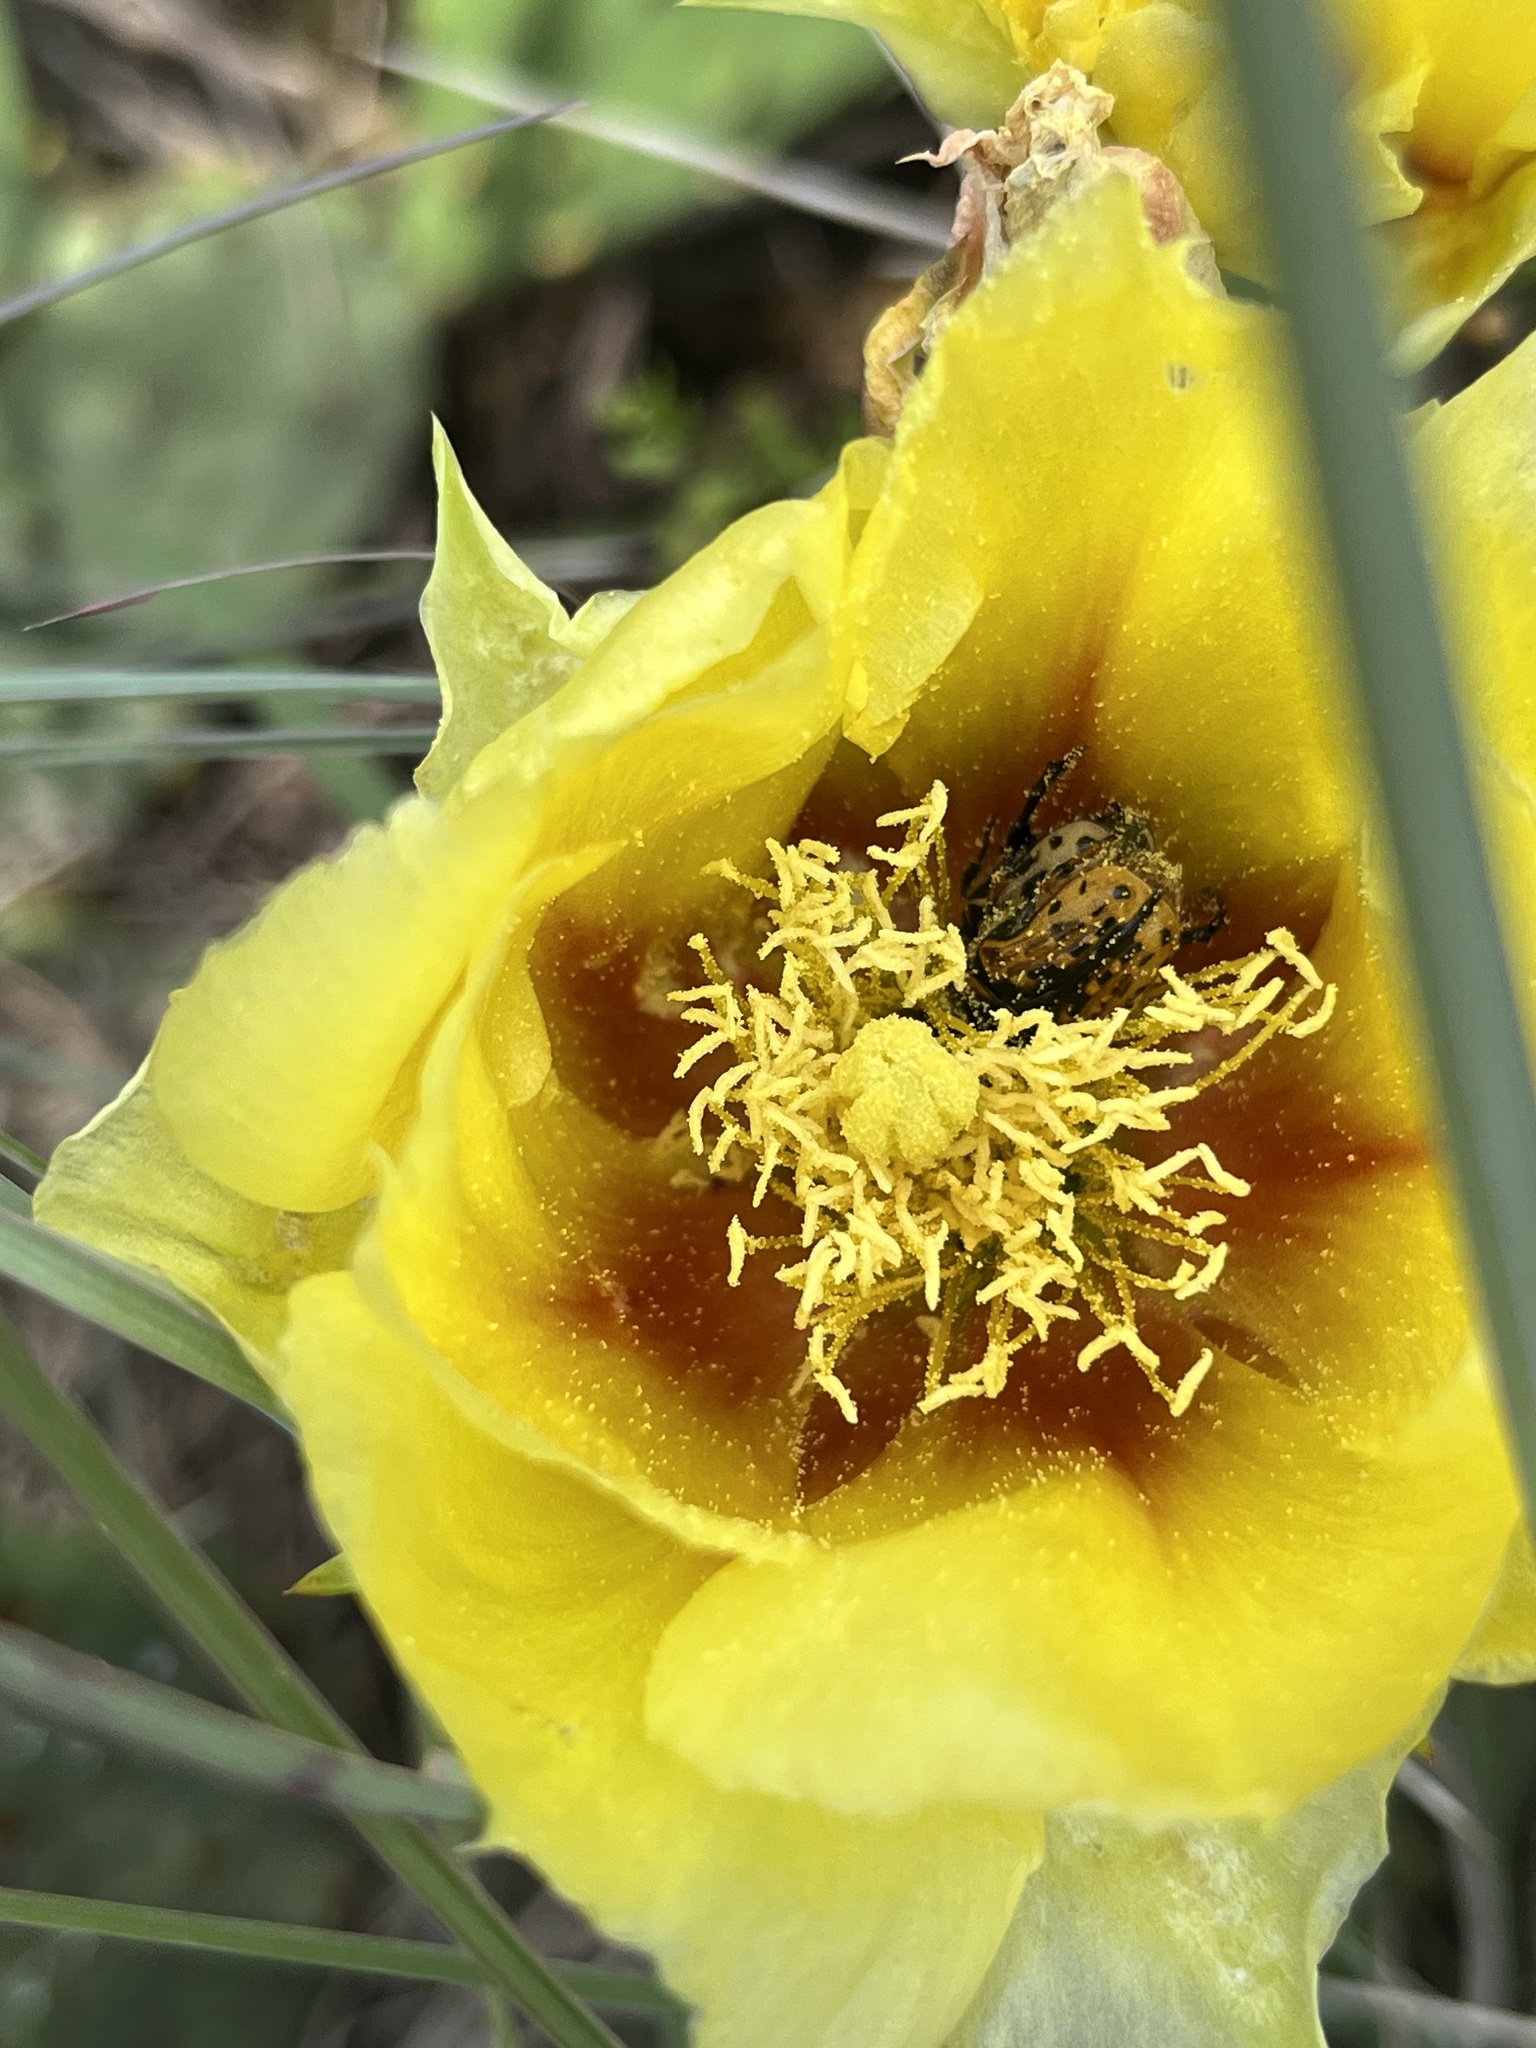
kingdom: Animalia
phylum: Arthropoda
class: Insecta
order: Coleoptera
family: Scarabaeidae
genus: Euphoria
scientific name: Euphoria kernii
